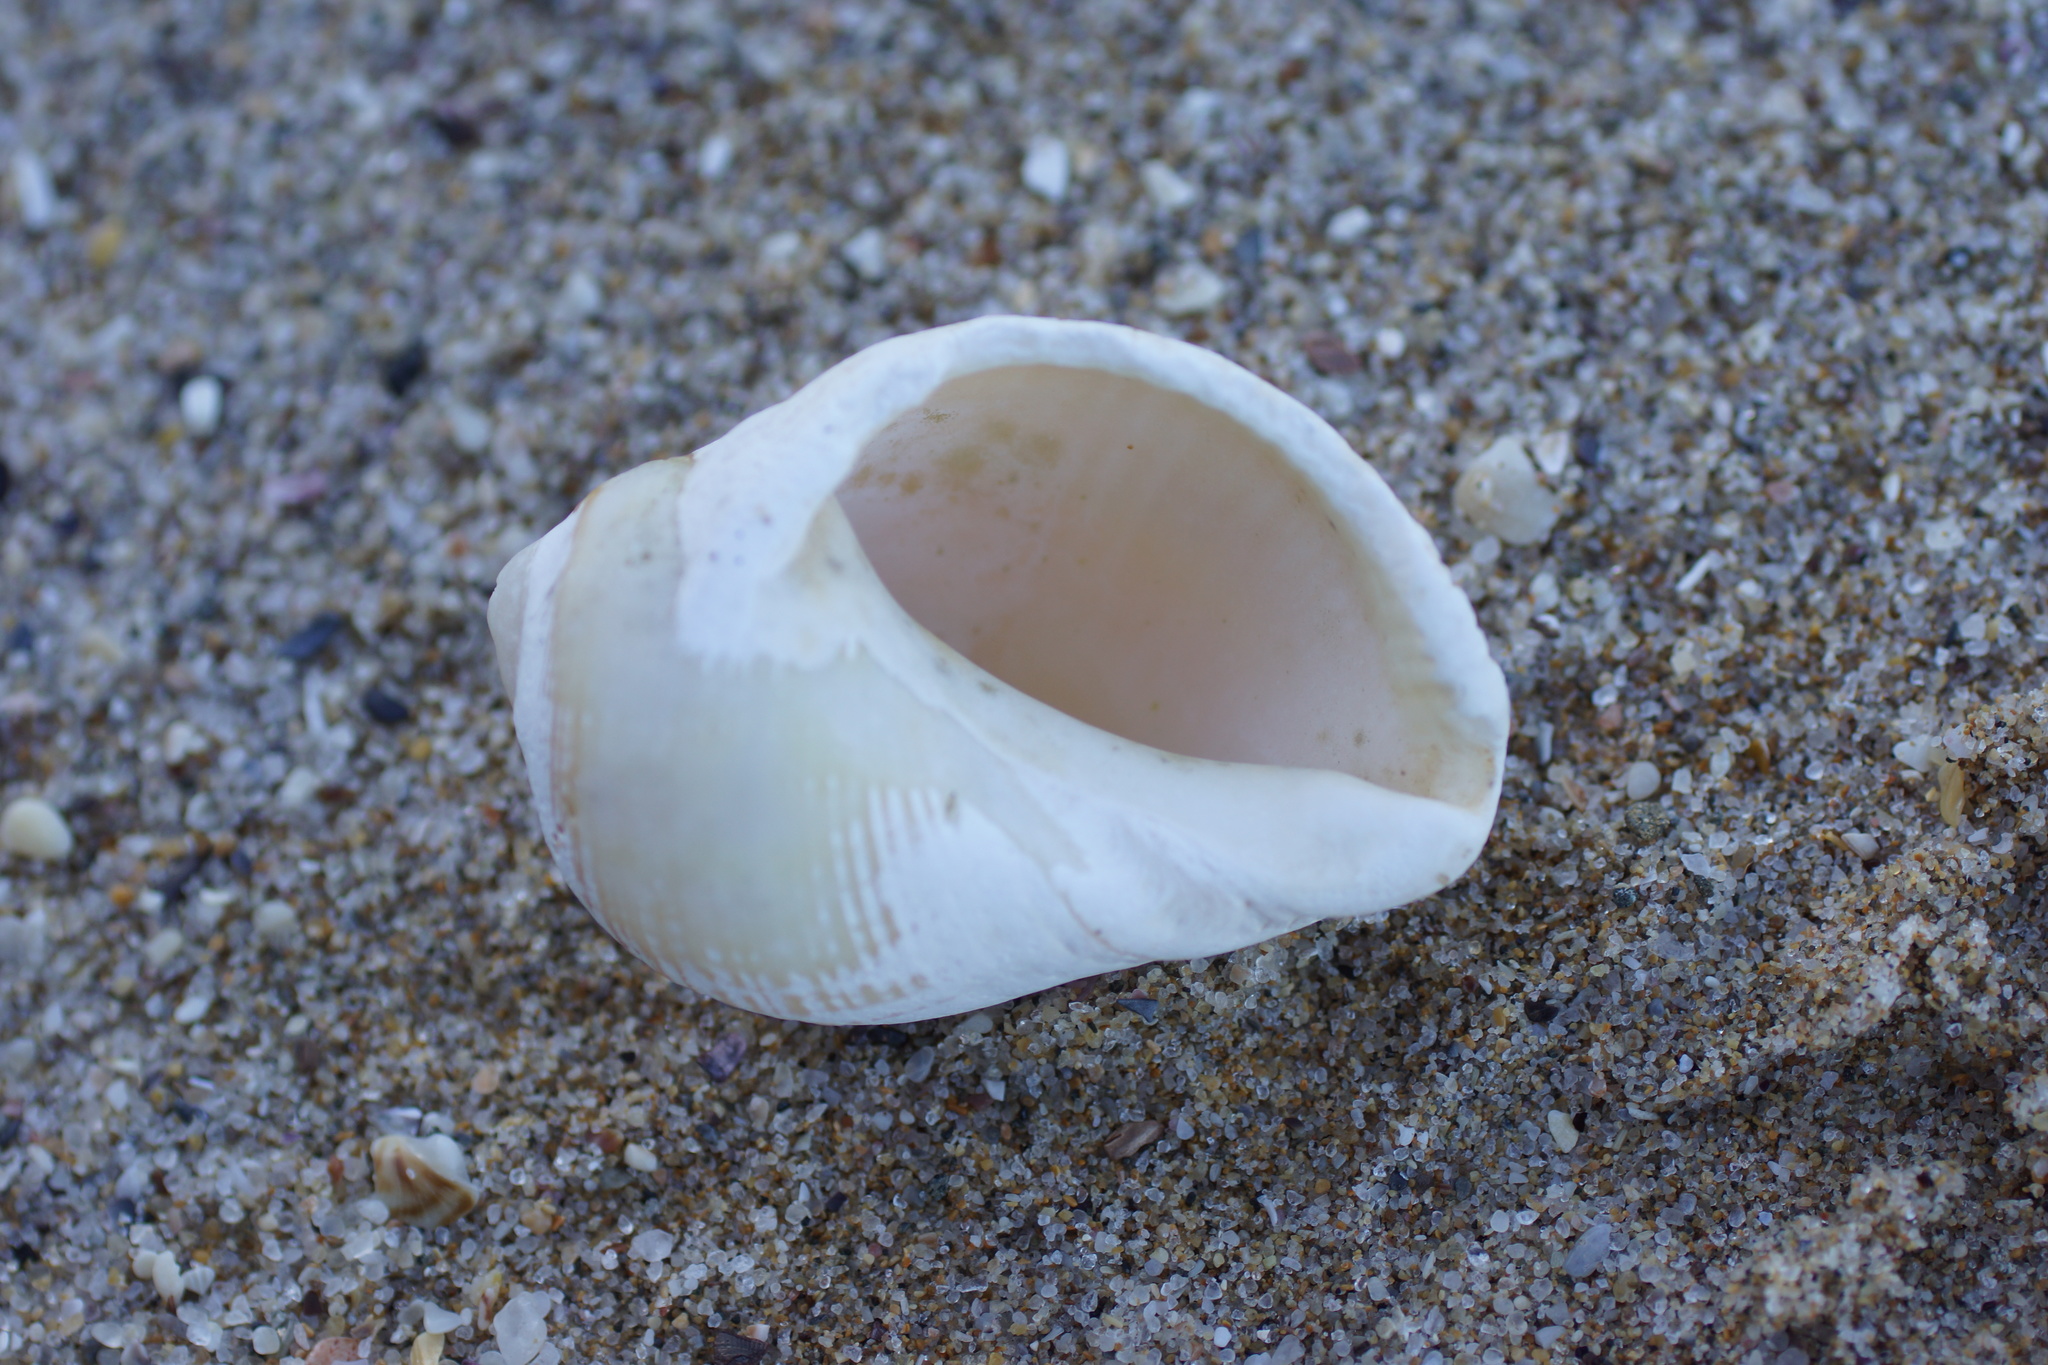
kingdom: Animalia
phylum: Mollusca
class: Gastropoda
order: Neogastropoda
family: Muricidae
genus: Dicathais
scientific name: Dicathais orbita
